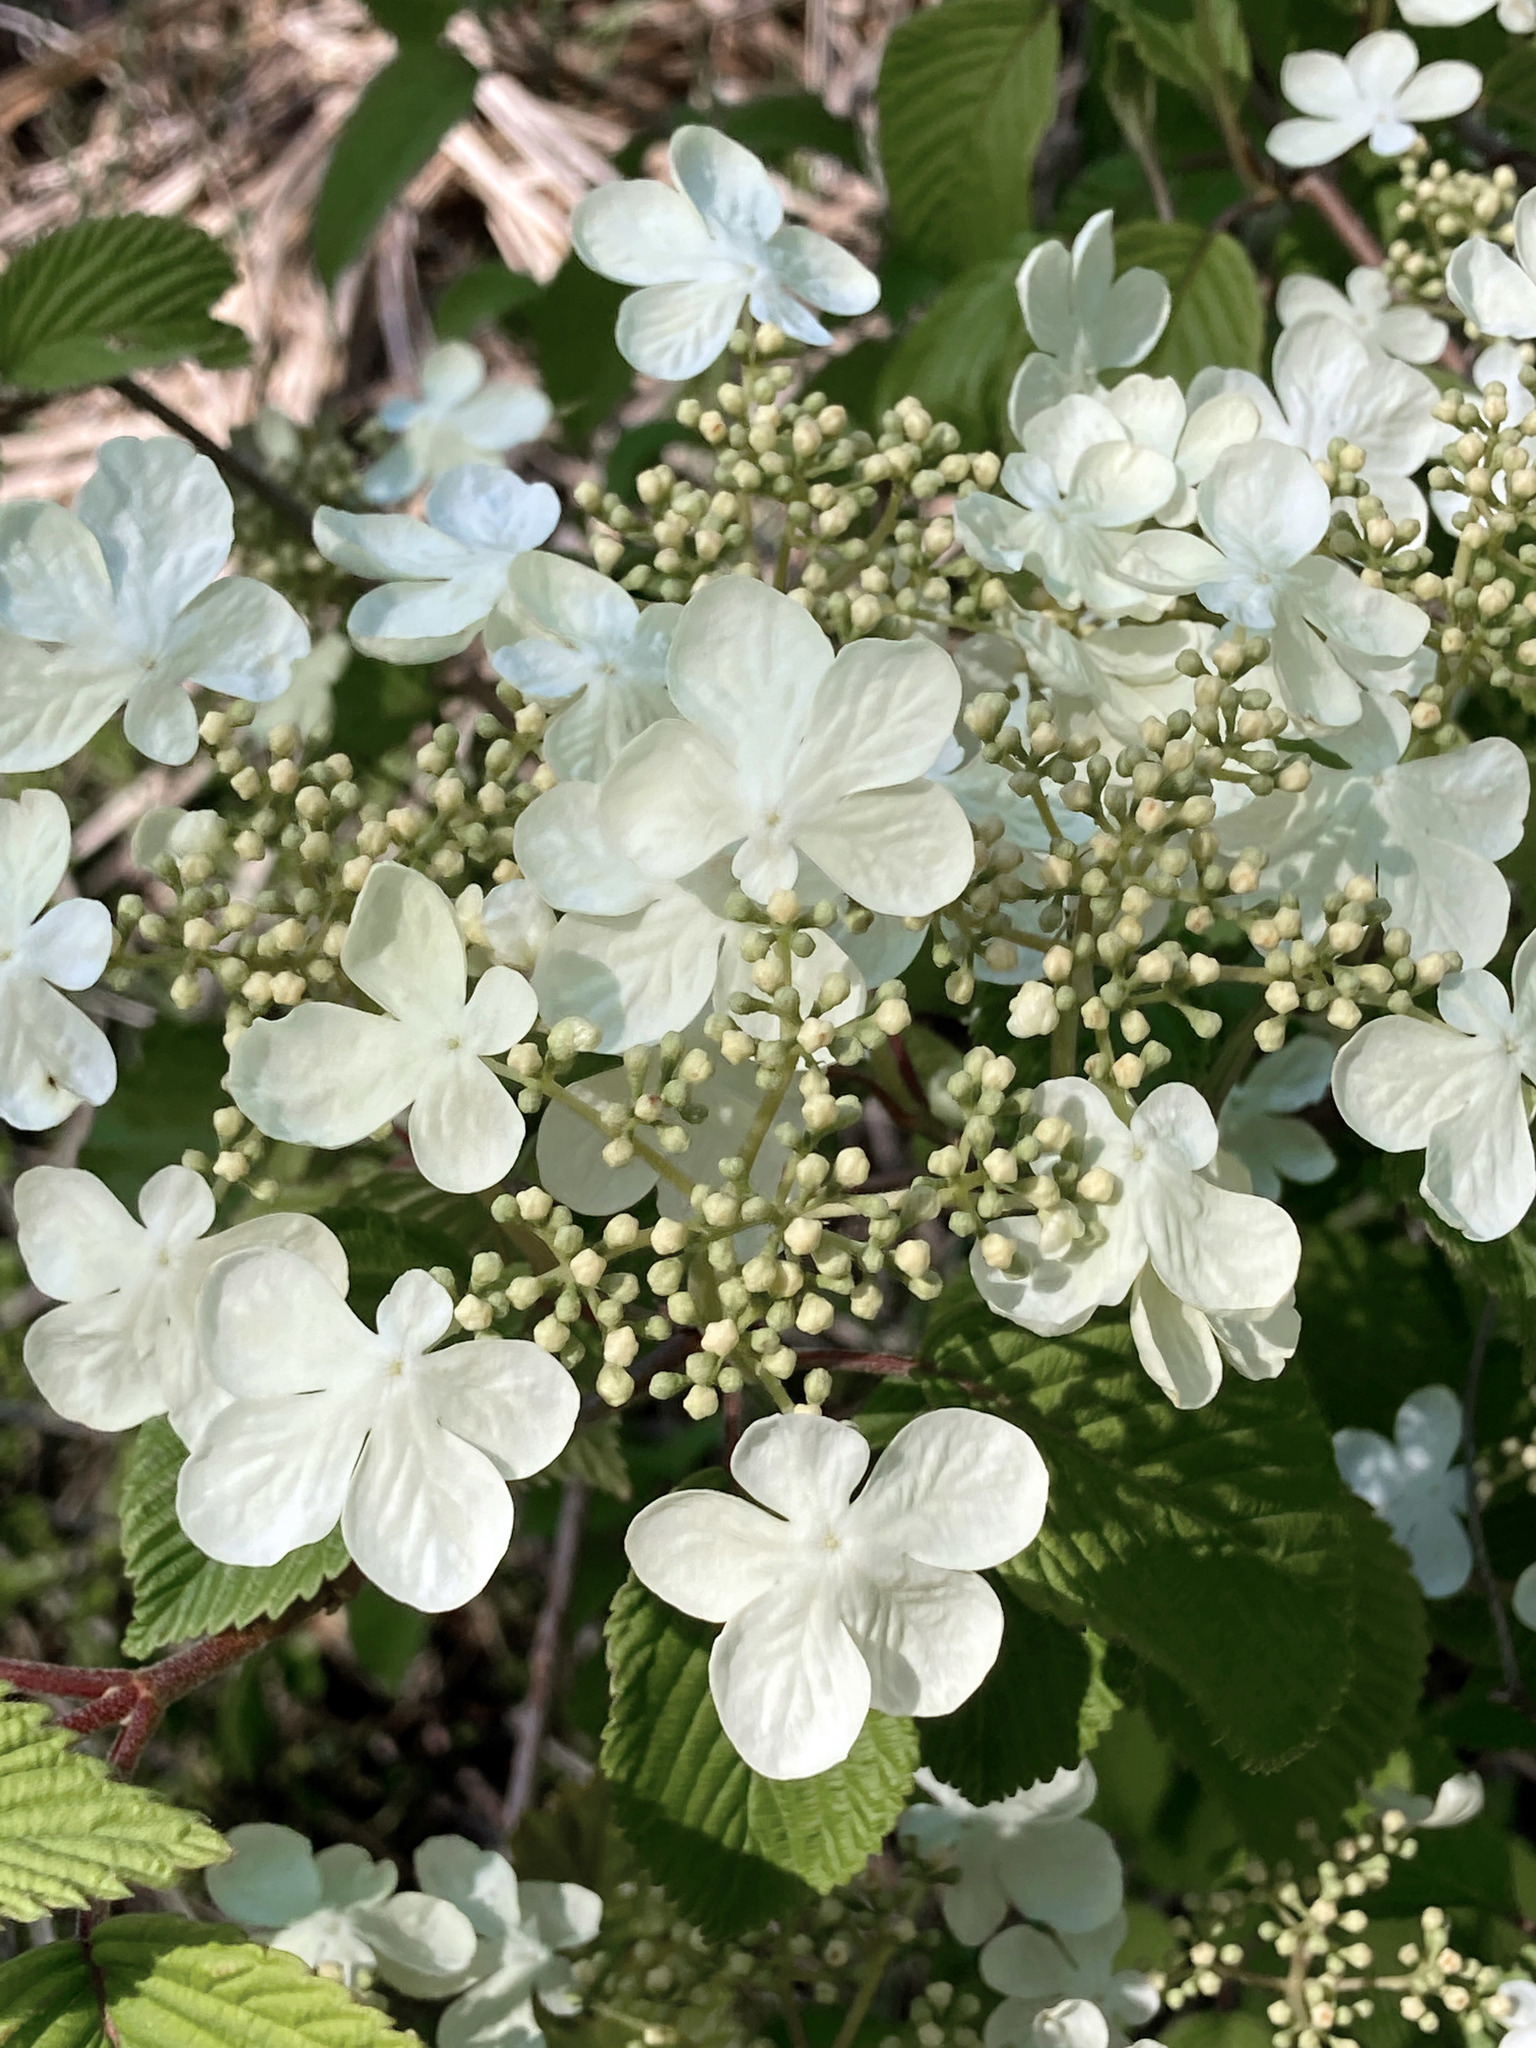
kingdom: Plantae
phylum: Tracheophyta
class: Magnoliopsida
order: Dipsacales
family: Viburnaceae
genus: Viburnum
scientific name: Viburnum plicatum
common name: Japanese snowball
